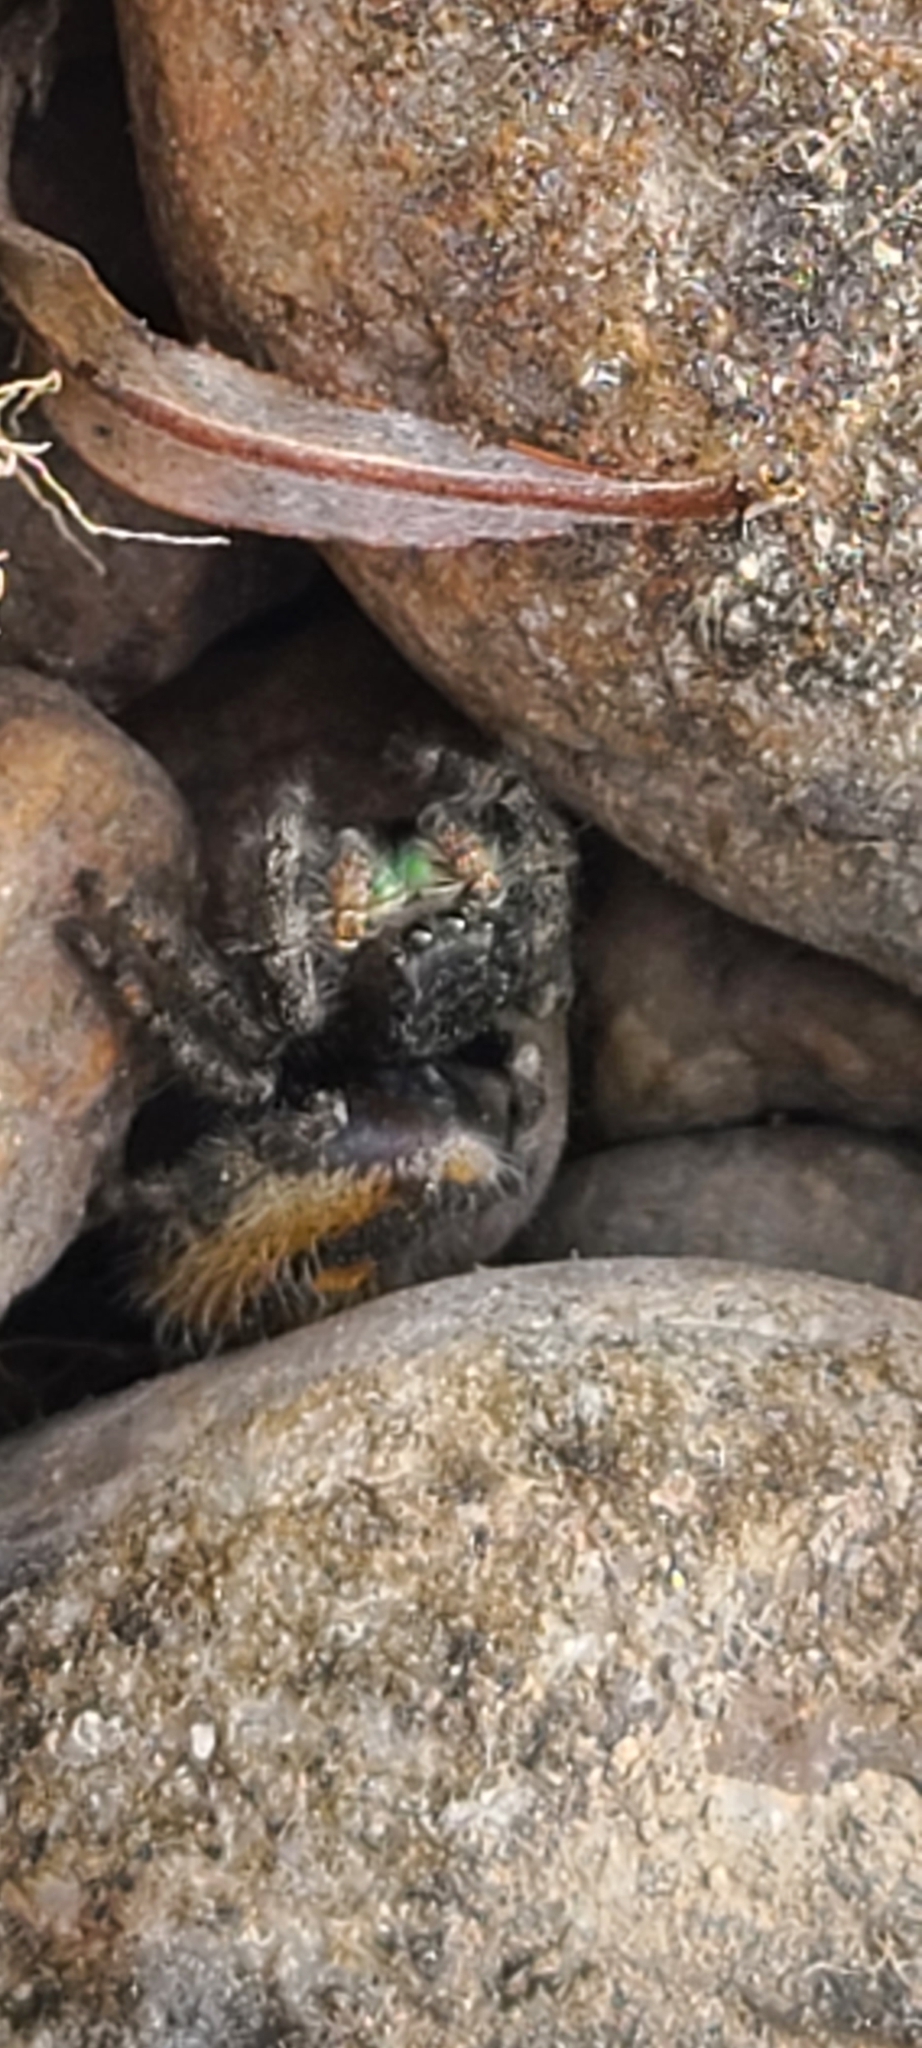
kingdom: Animalia
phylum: Arthropoda
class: Arachnida
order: Araneae
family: Salticidae
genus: Phidippus
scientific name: Phidippus audax
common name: Bold jumper
